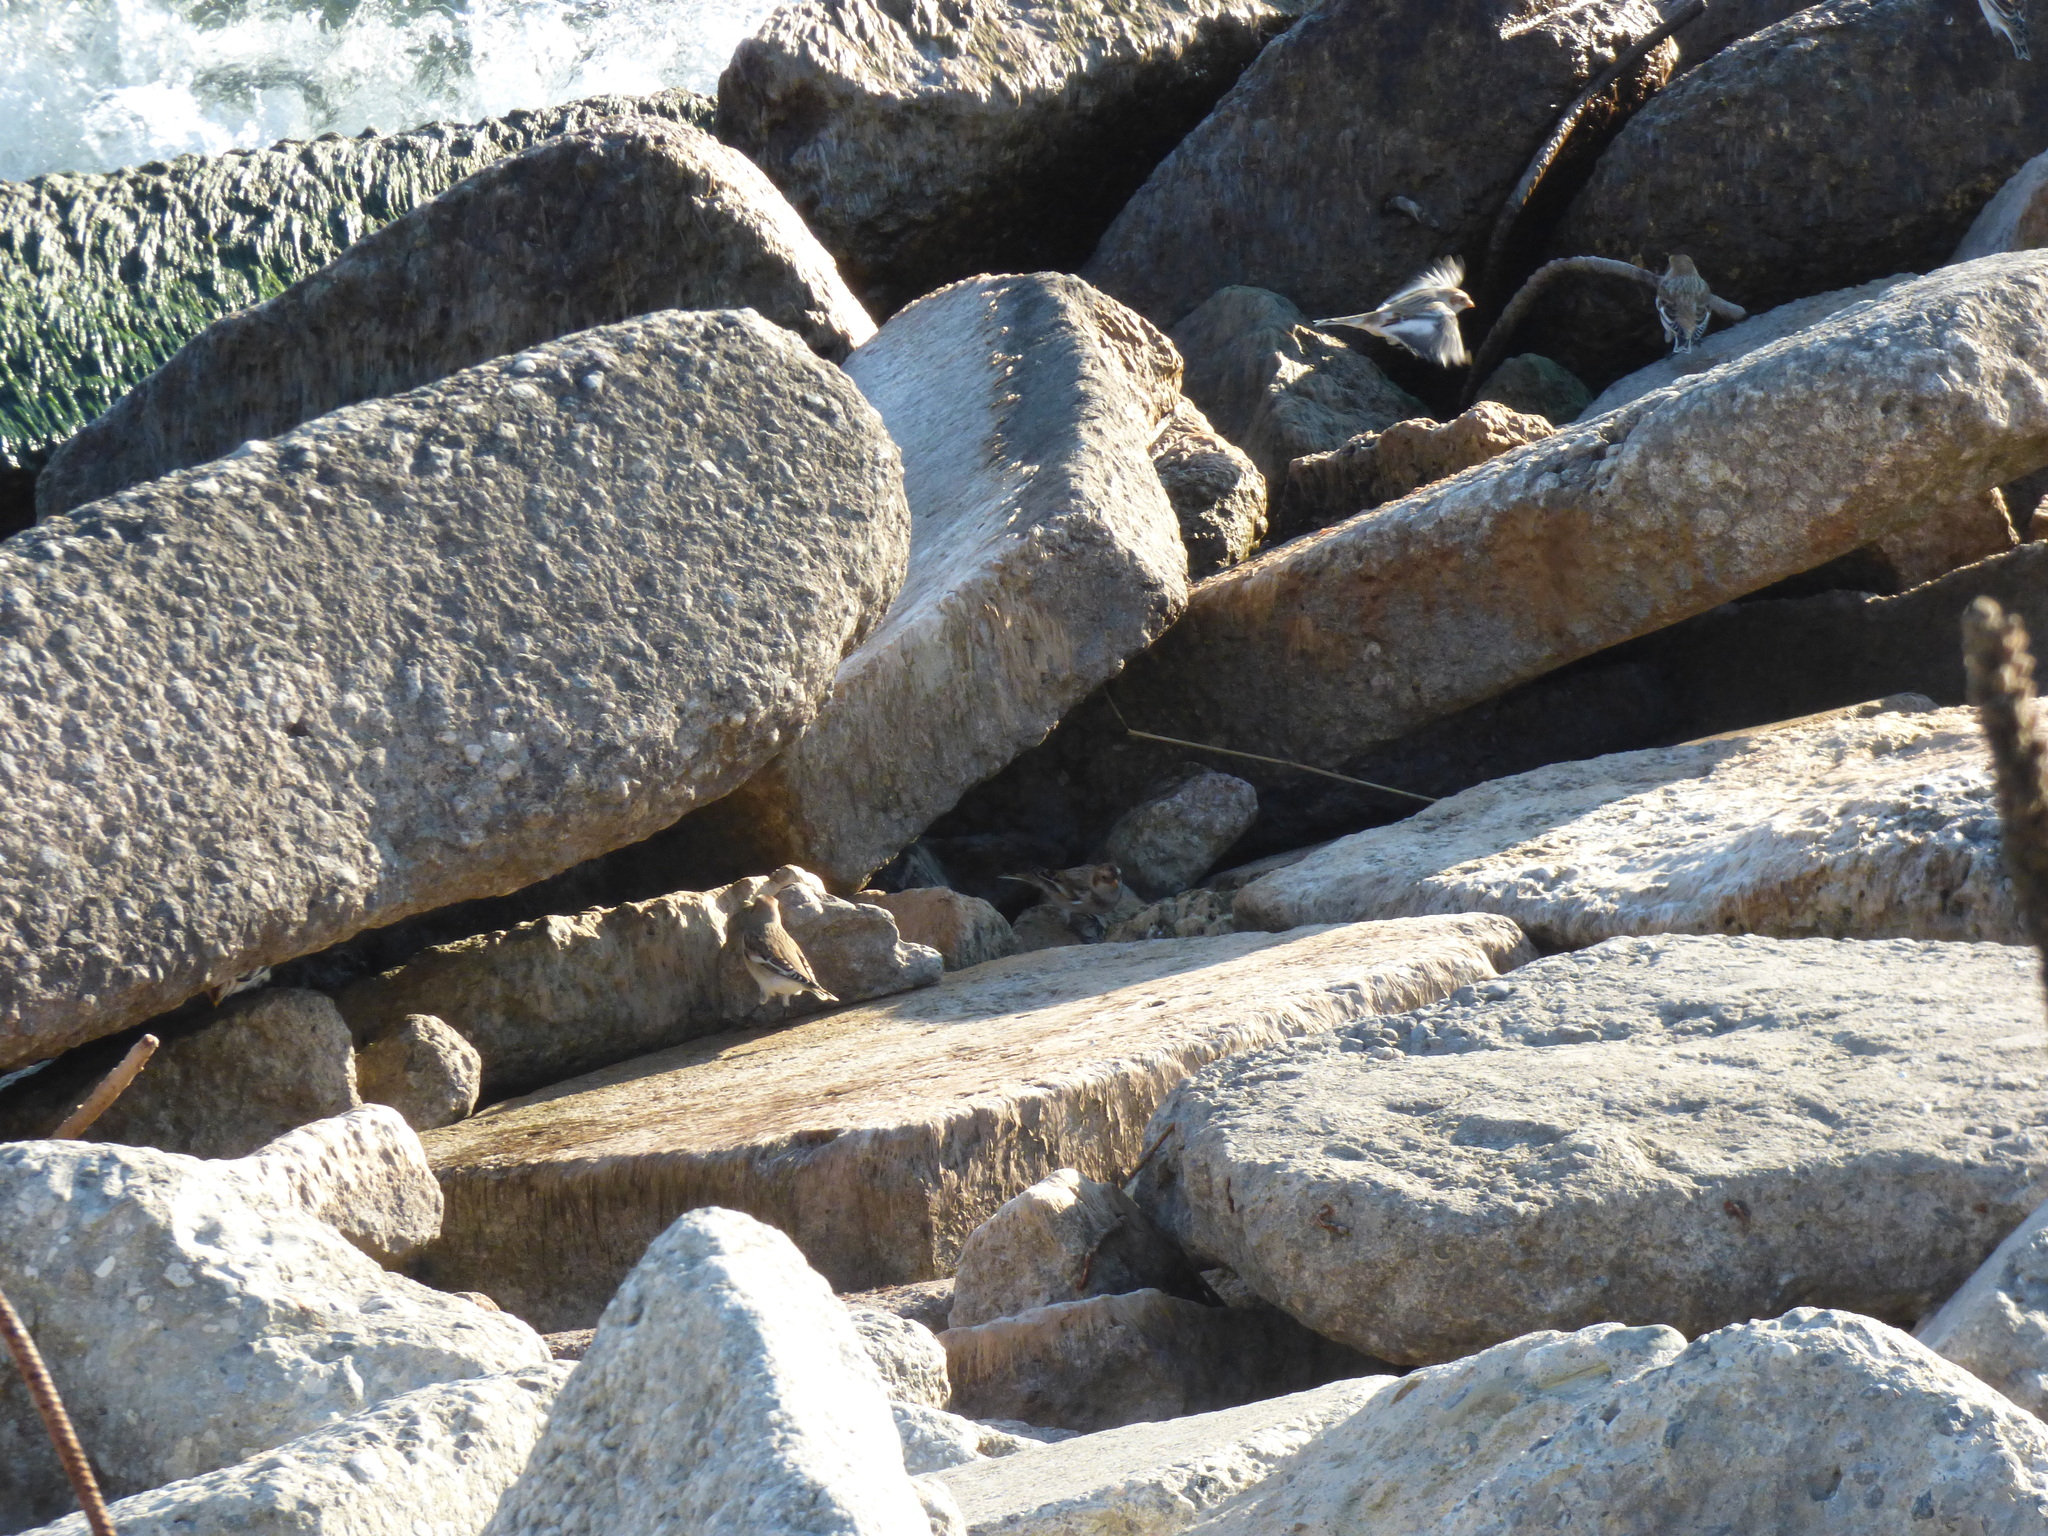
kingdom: Animalia
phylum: Chordata
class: Aves
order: Passeriformes
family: Calcariidae
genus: Plectrophenax
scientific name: Plectrophenax nivalis
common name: Snow bunting
